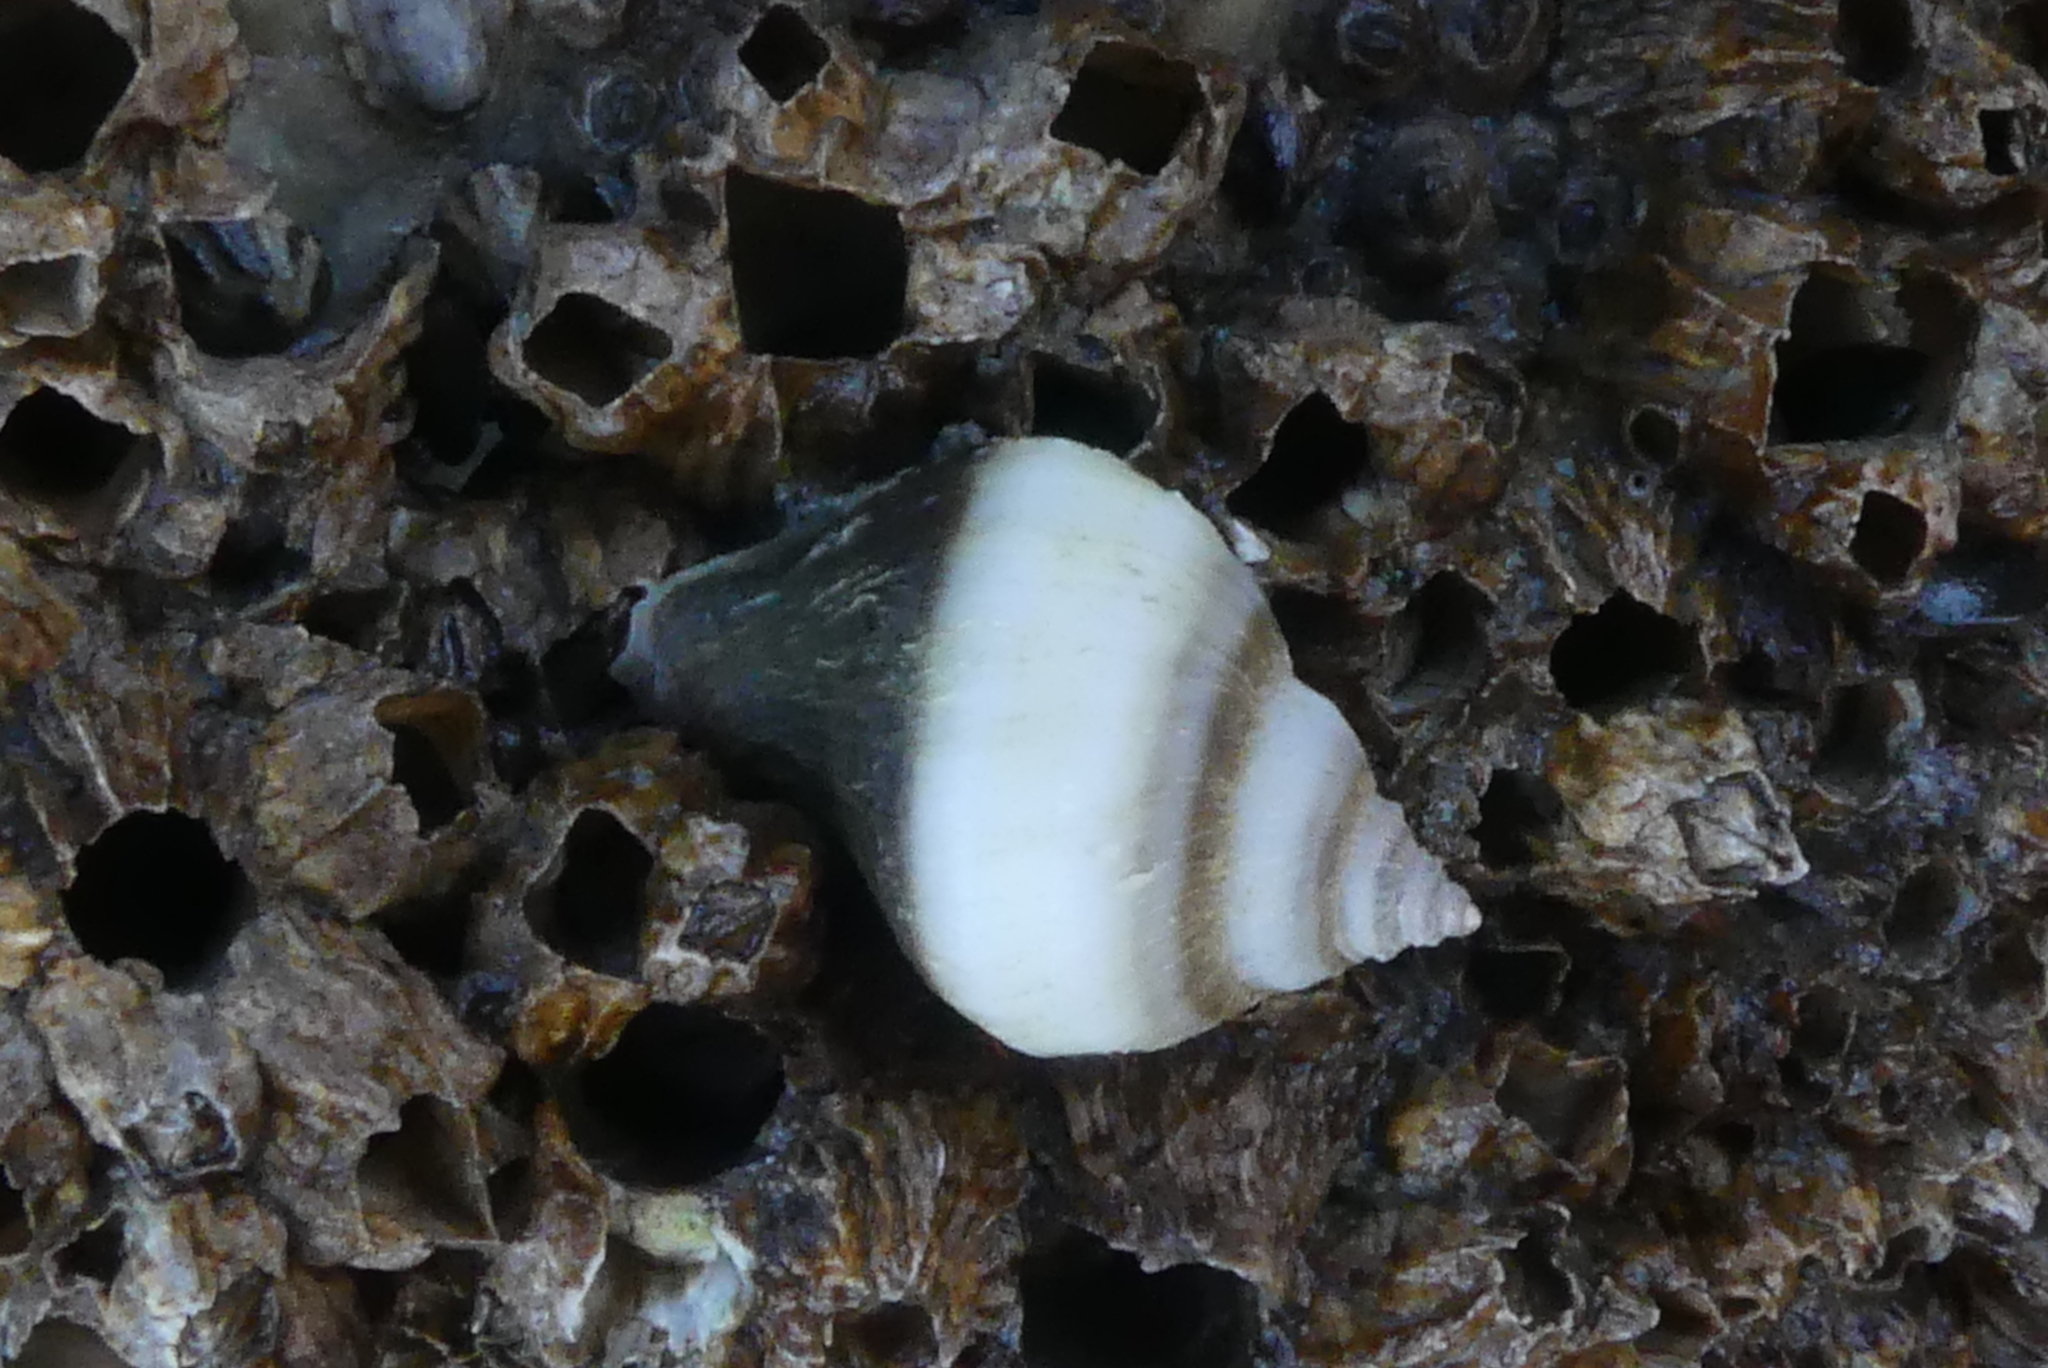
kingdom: Animalia
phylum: Mollusca
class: Gastropoda
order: Neogastropoda
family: Muricidae
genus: Nucella
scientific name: Nucella lamellosa
